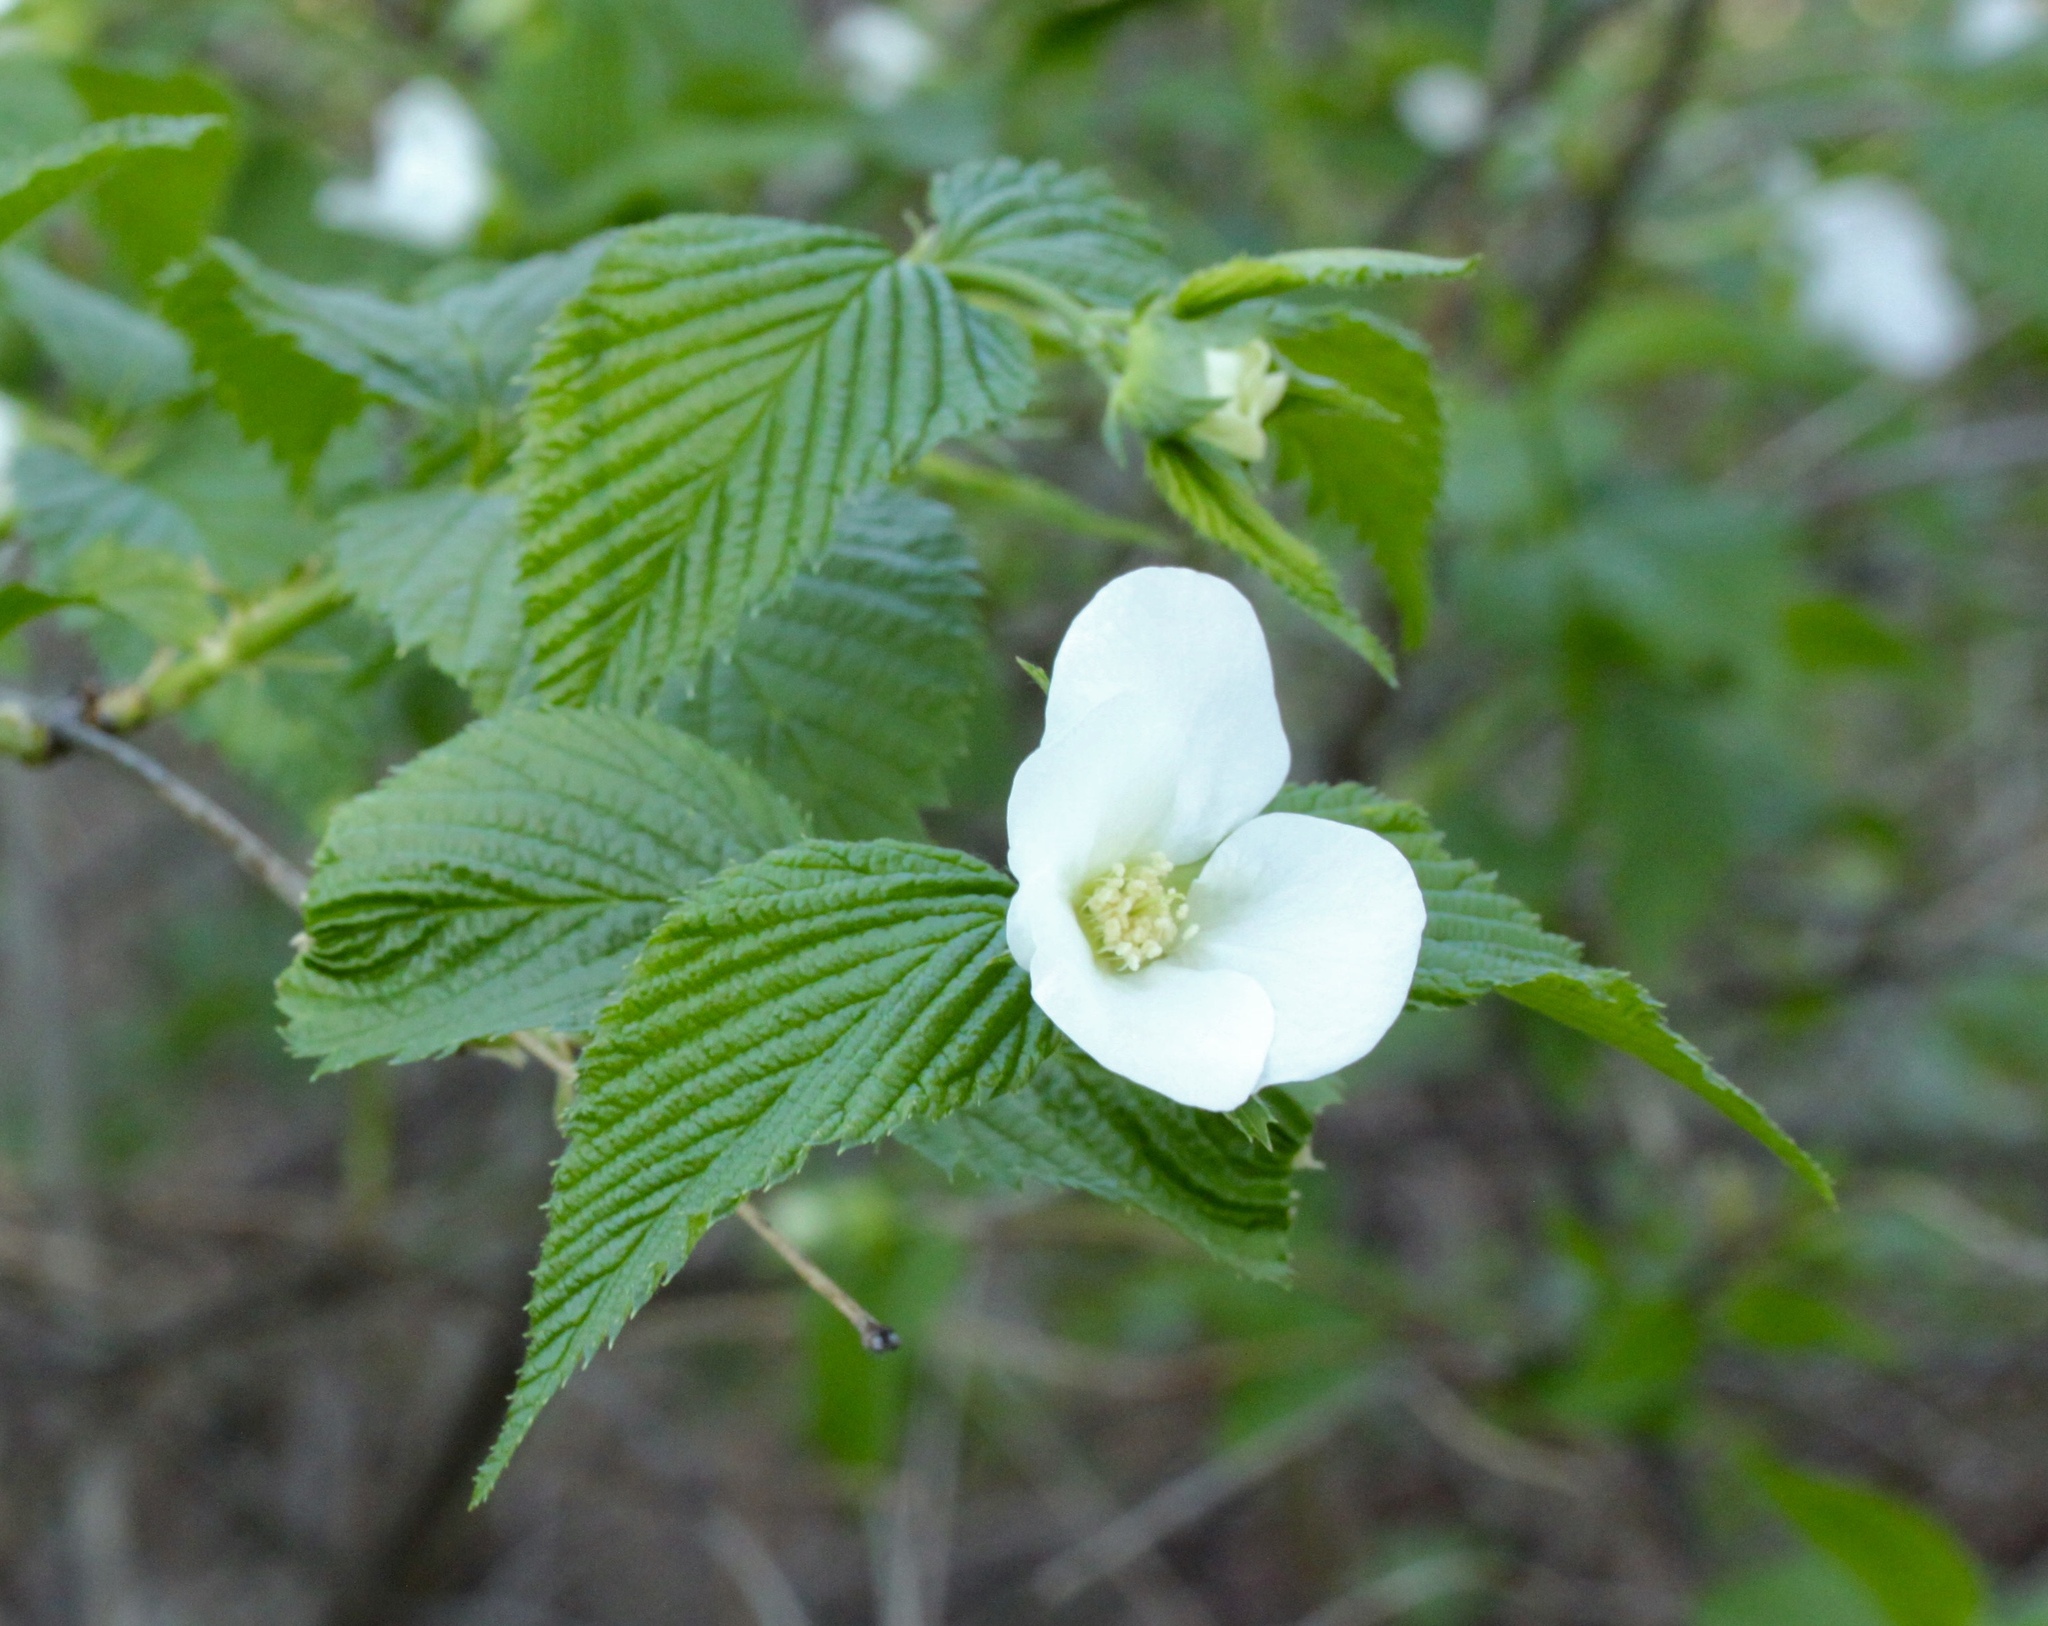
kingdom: Plantae
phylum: Tracheophyta
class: Magnoliopsida
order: Rosales
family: Rosaceae
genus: Rhodotypos
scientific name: Rhodotypos scandens
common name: Jetbead
